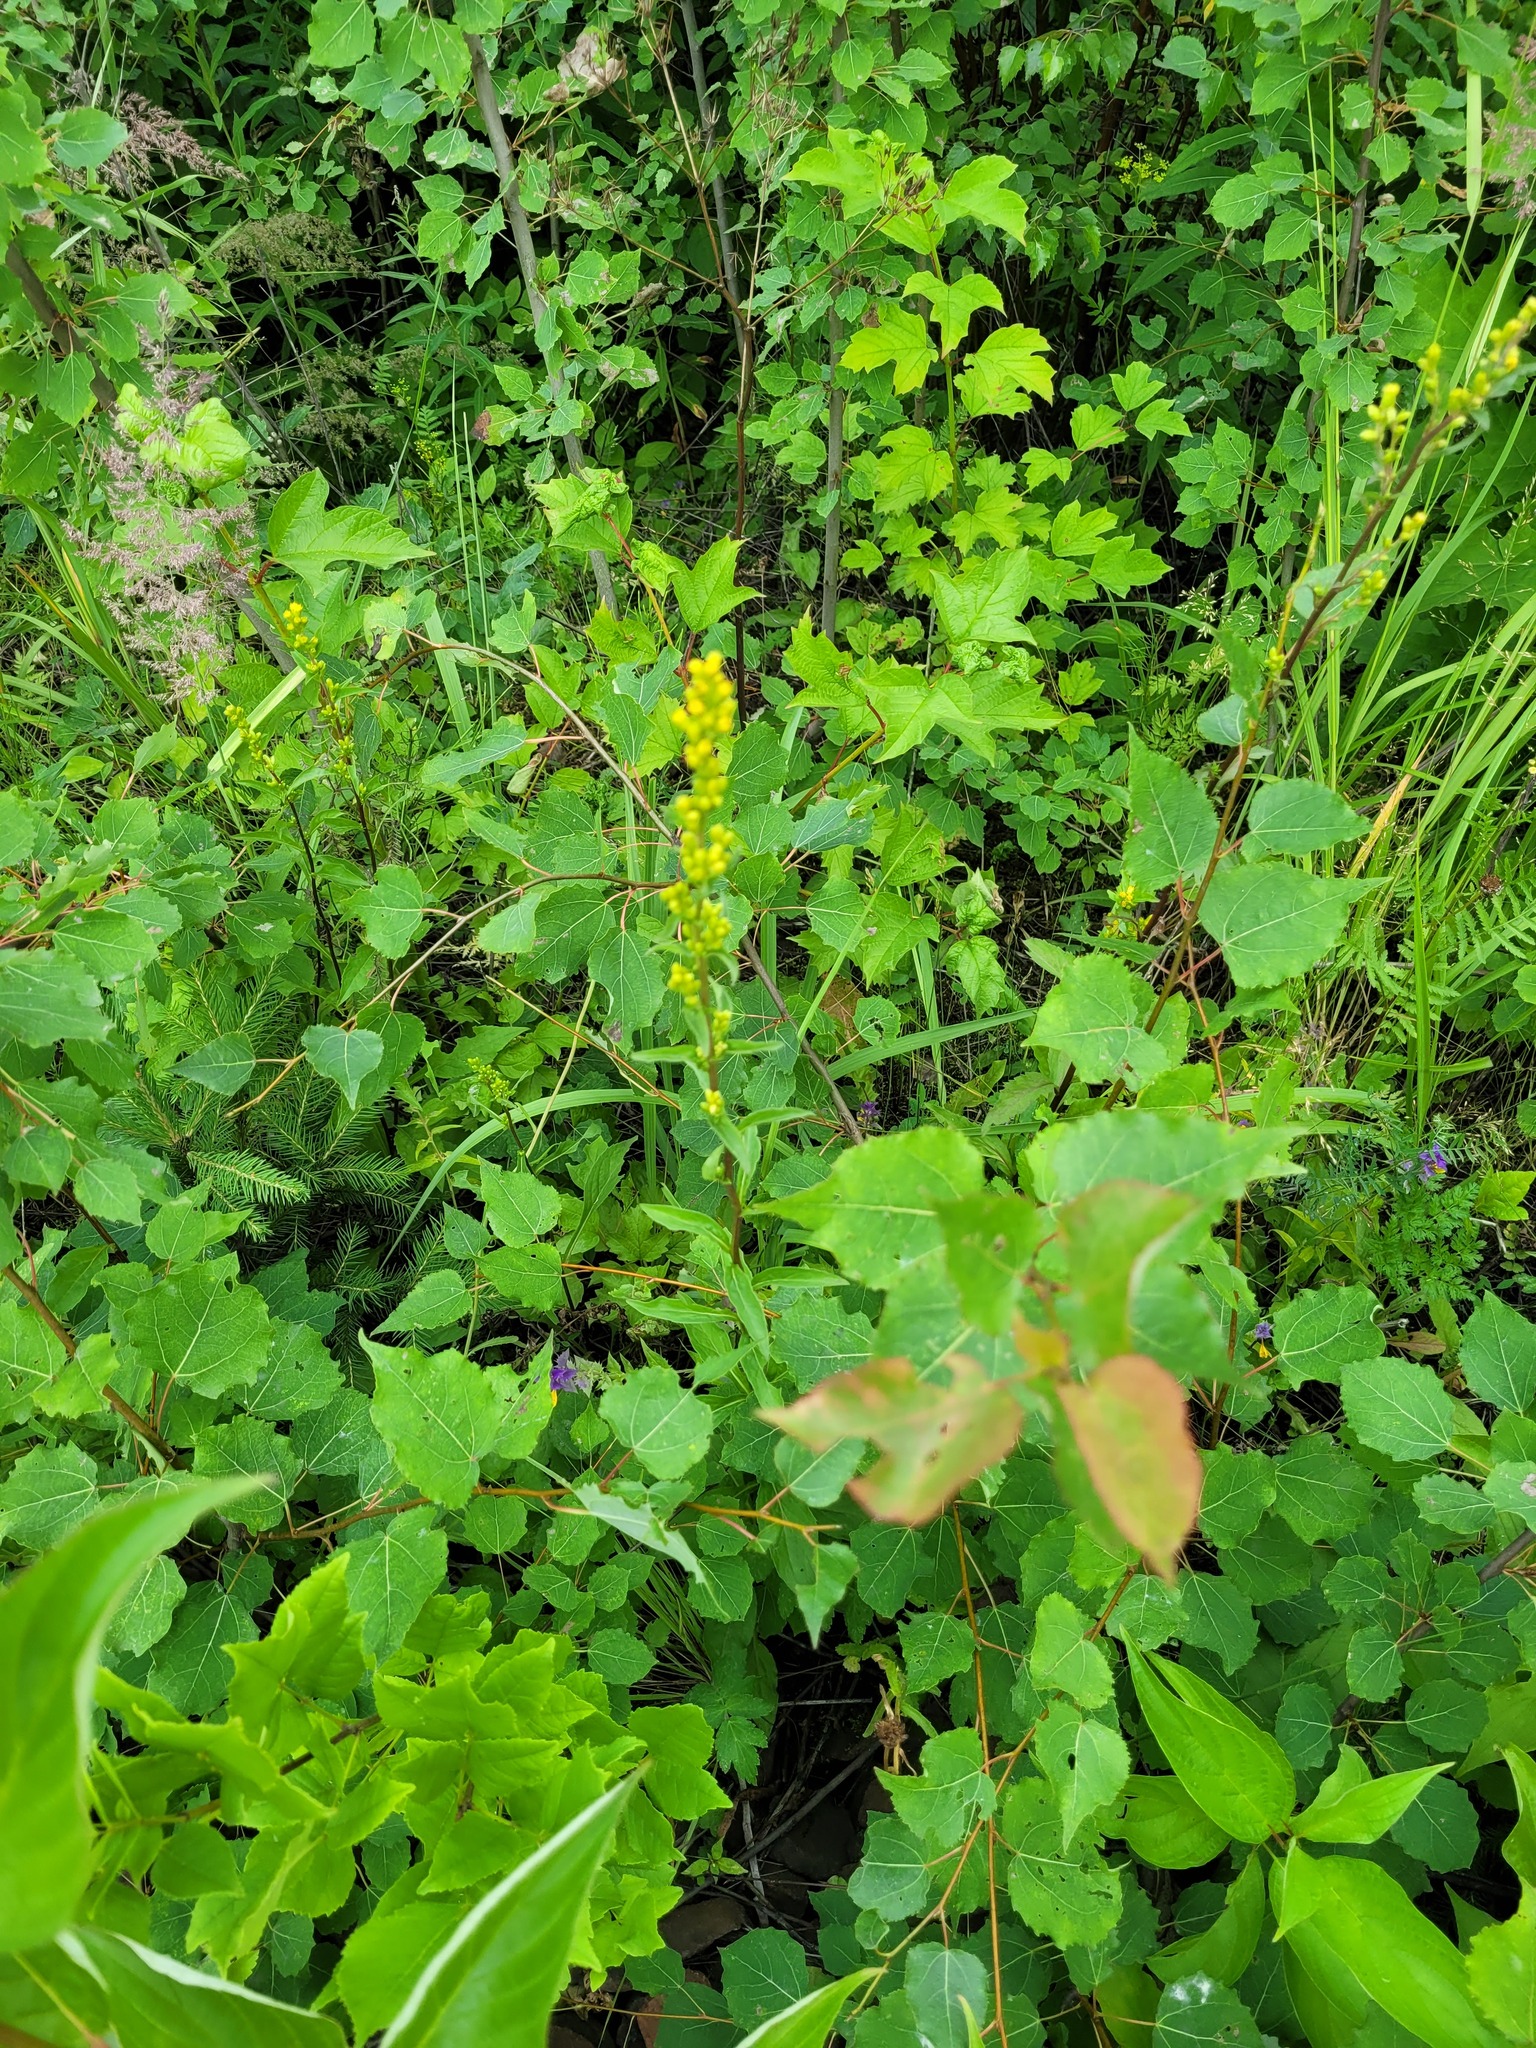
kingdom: Plantae
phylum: Tracheophyta
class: Magnoliopsida
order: Asterales
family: Asteraceae
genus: Solidago
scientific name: Solidago virgaurea
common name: Goldenrod
